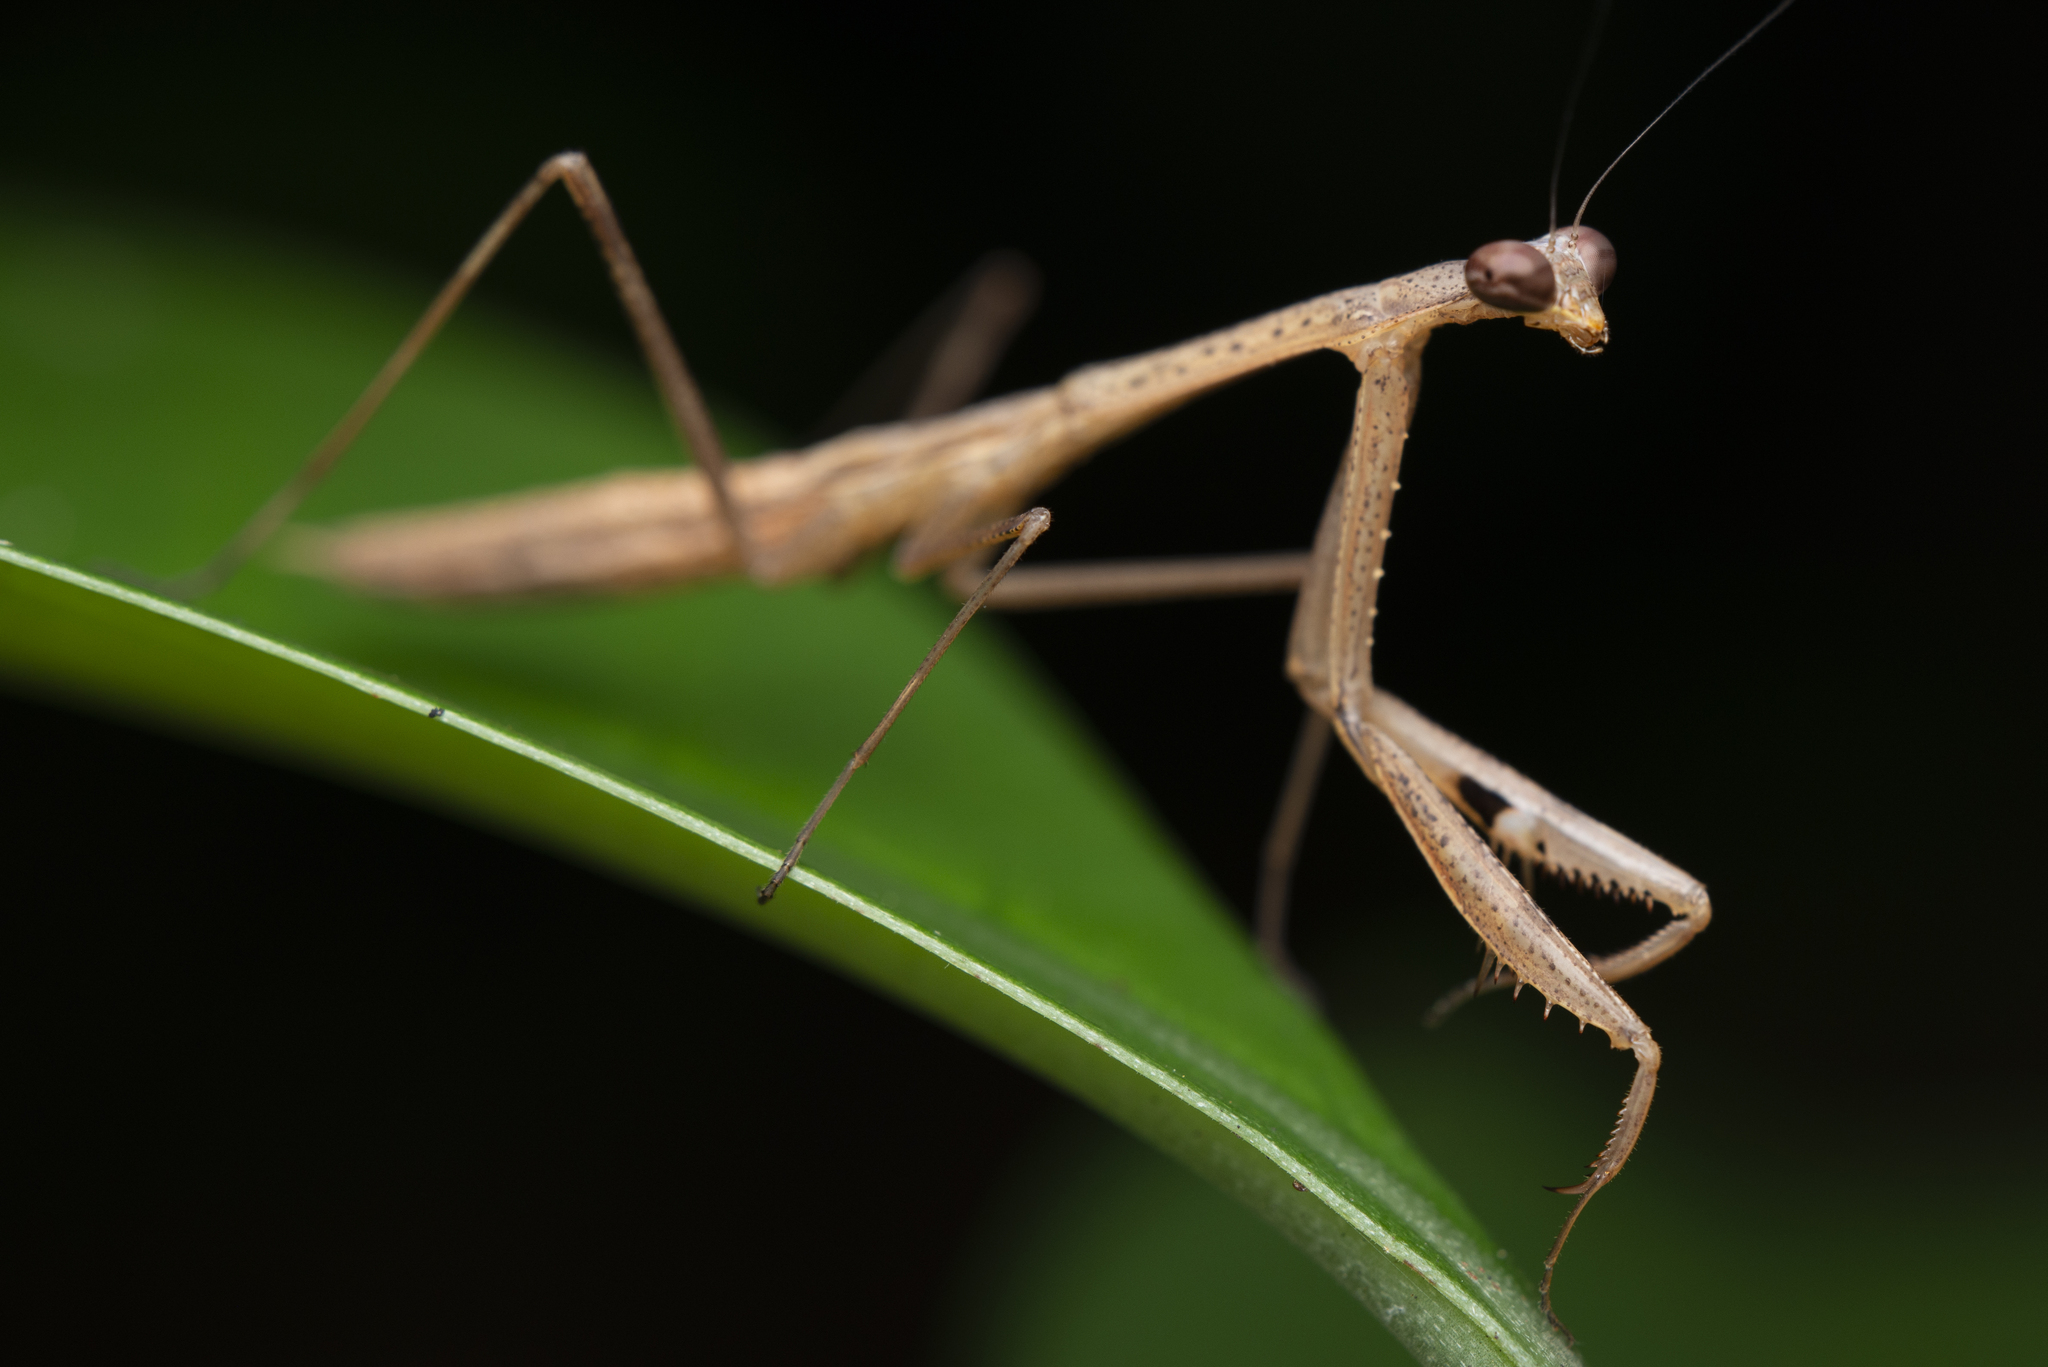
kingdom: Animalia
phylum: Arthropoda
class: Insecta
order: Mantodea
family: Mantidae
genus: Statilia
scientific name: Statilia nemoralis
